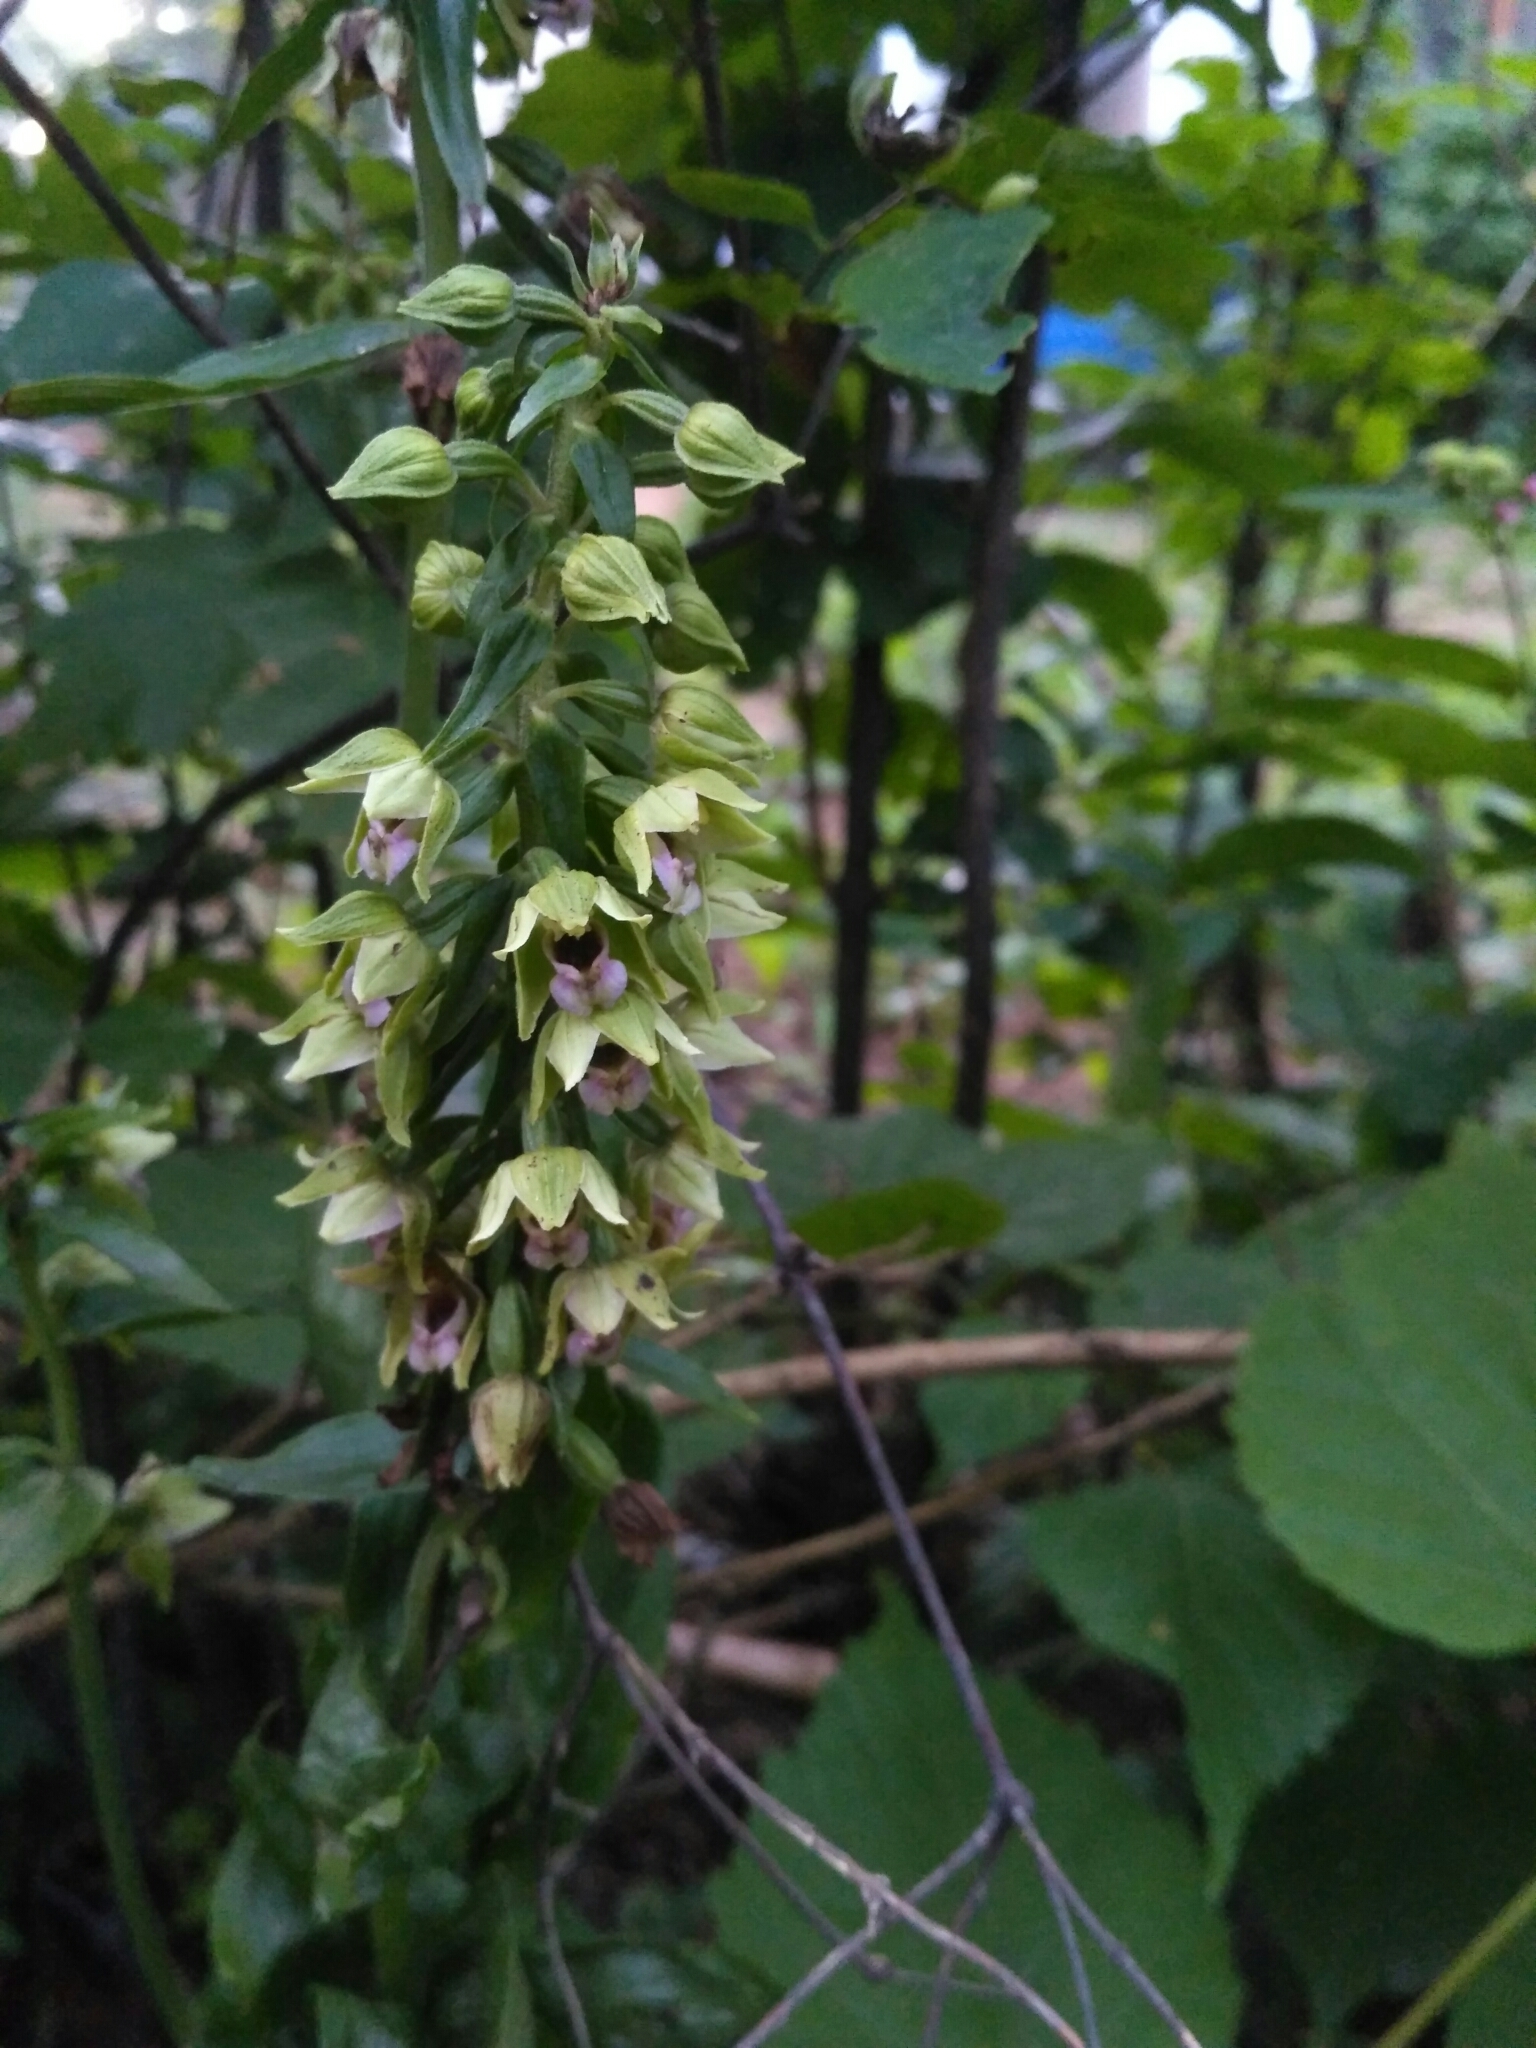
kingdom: Plantae
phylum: Tracheophyta
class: Liliopsida
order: Asparagales
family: Orchidaceae
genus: Epipactis
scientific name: Epipactis helleborine
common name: Broad-leaved helleborine
